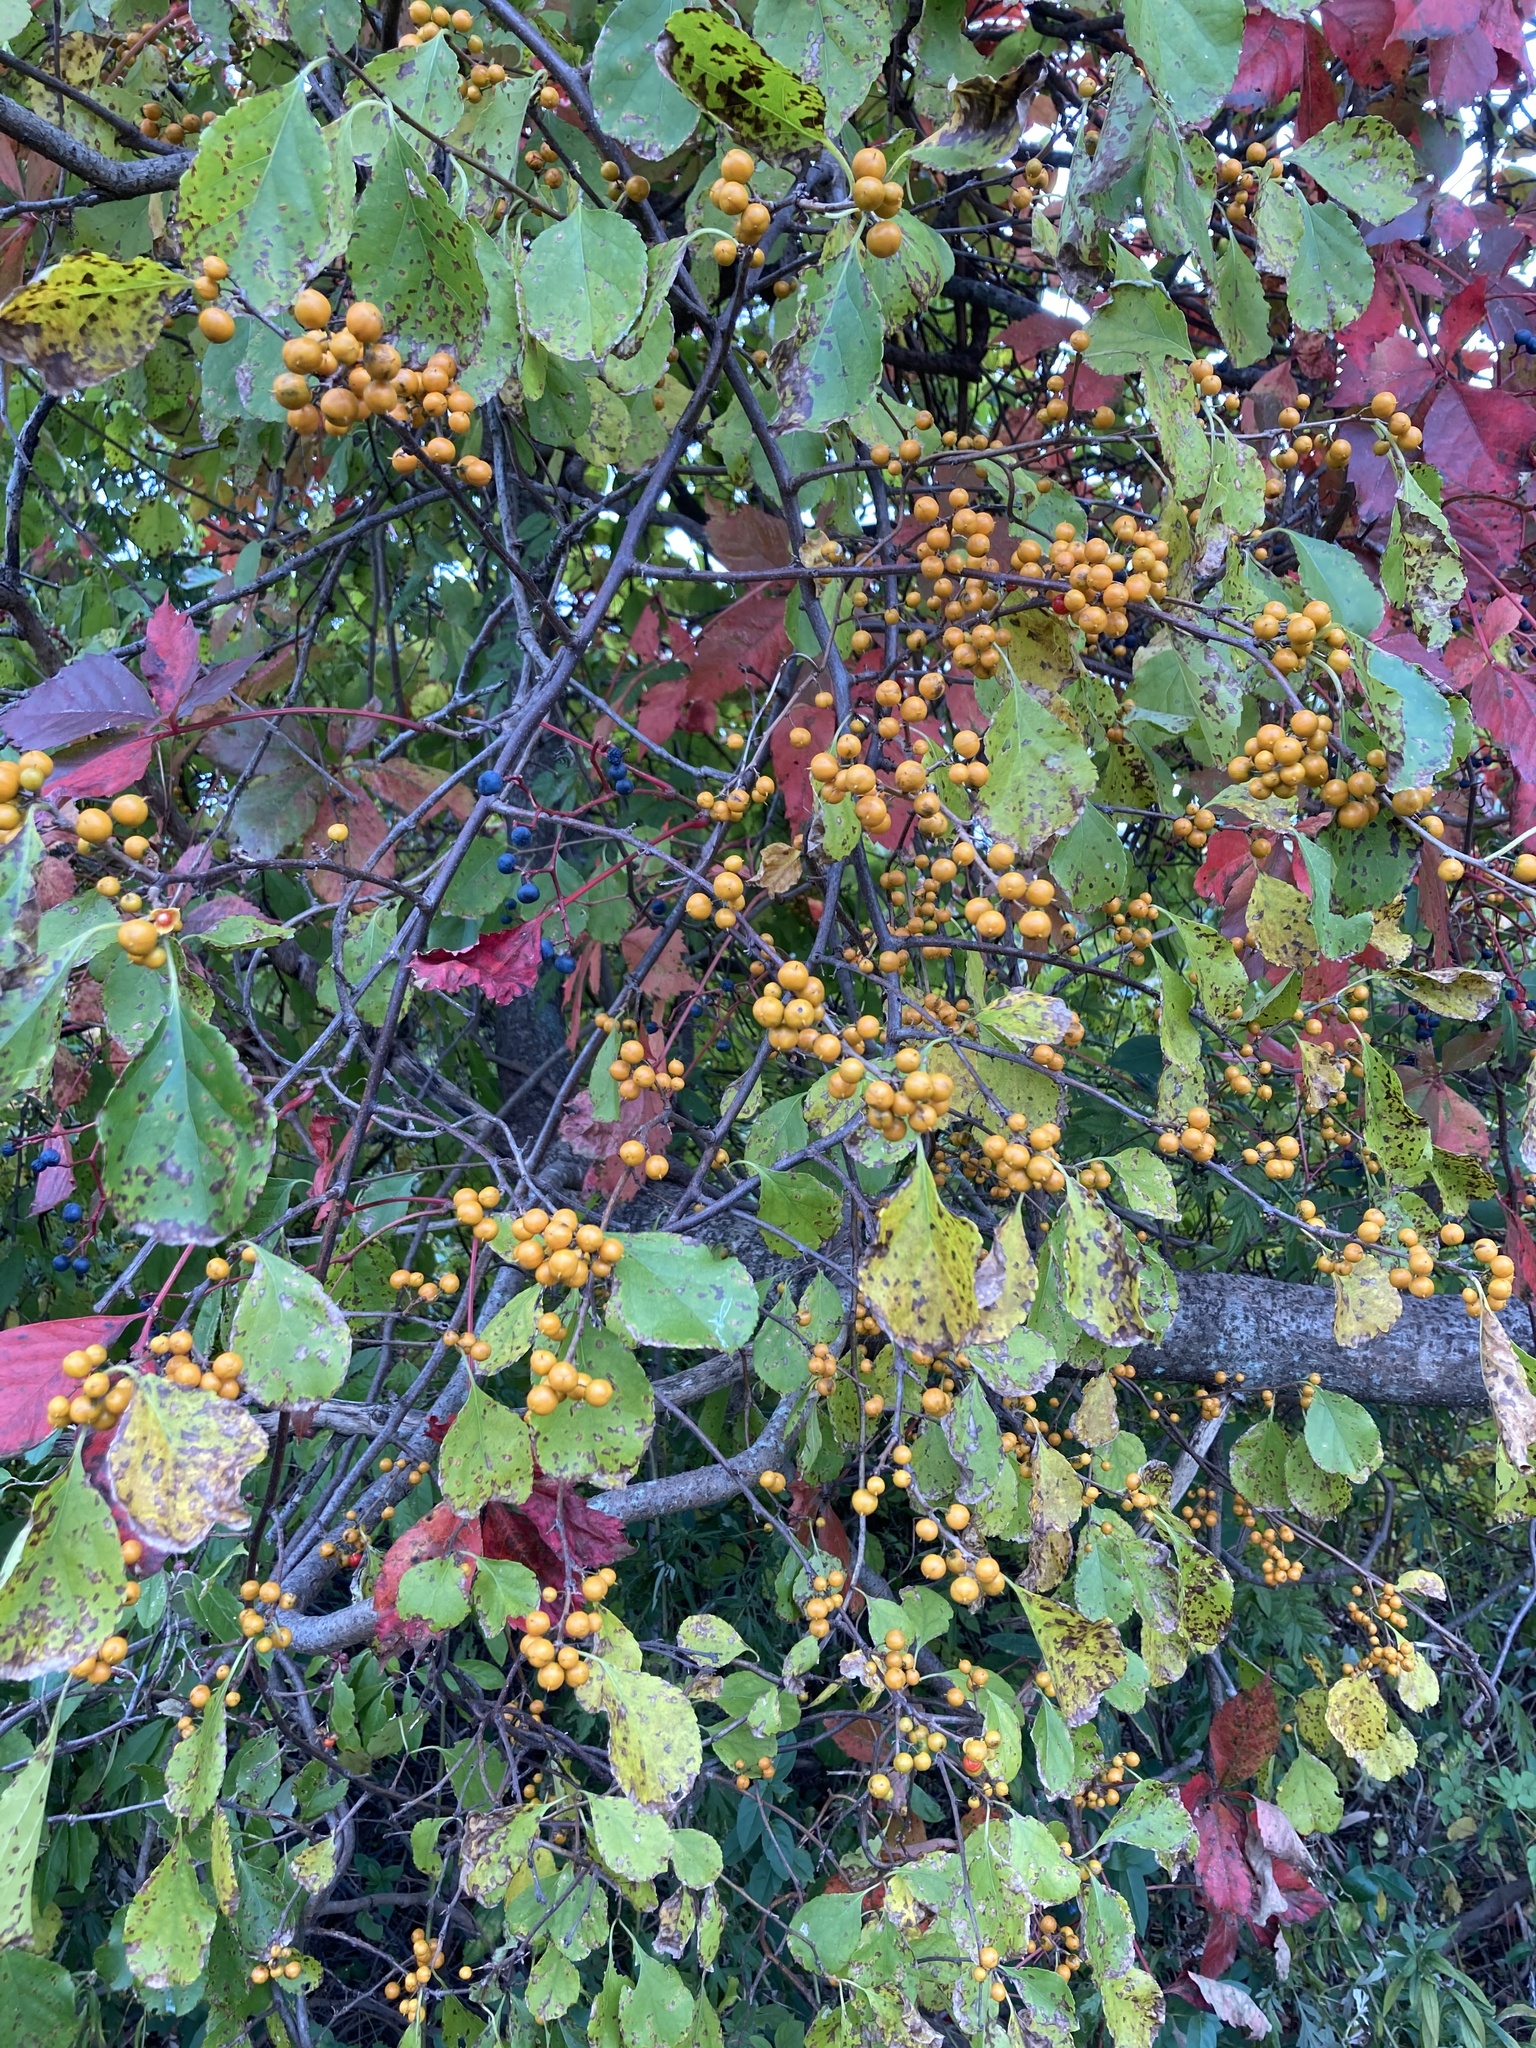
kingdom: Plantae
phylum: Tracheophyta
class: Magnoliopsida
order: Celastrales
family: Celastraceae
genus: Celastrus
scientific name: Celastrus orbiculatus
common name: Oriental bittersweet
